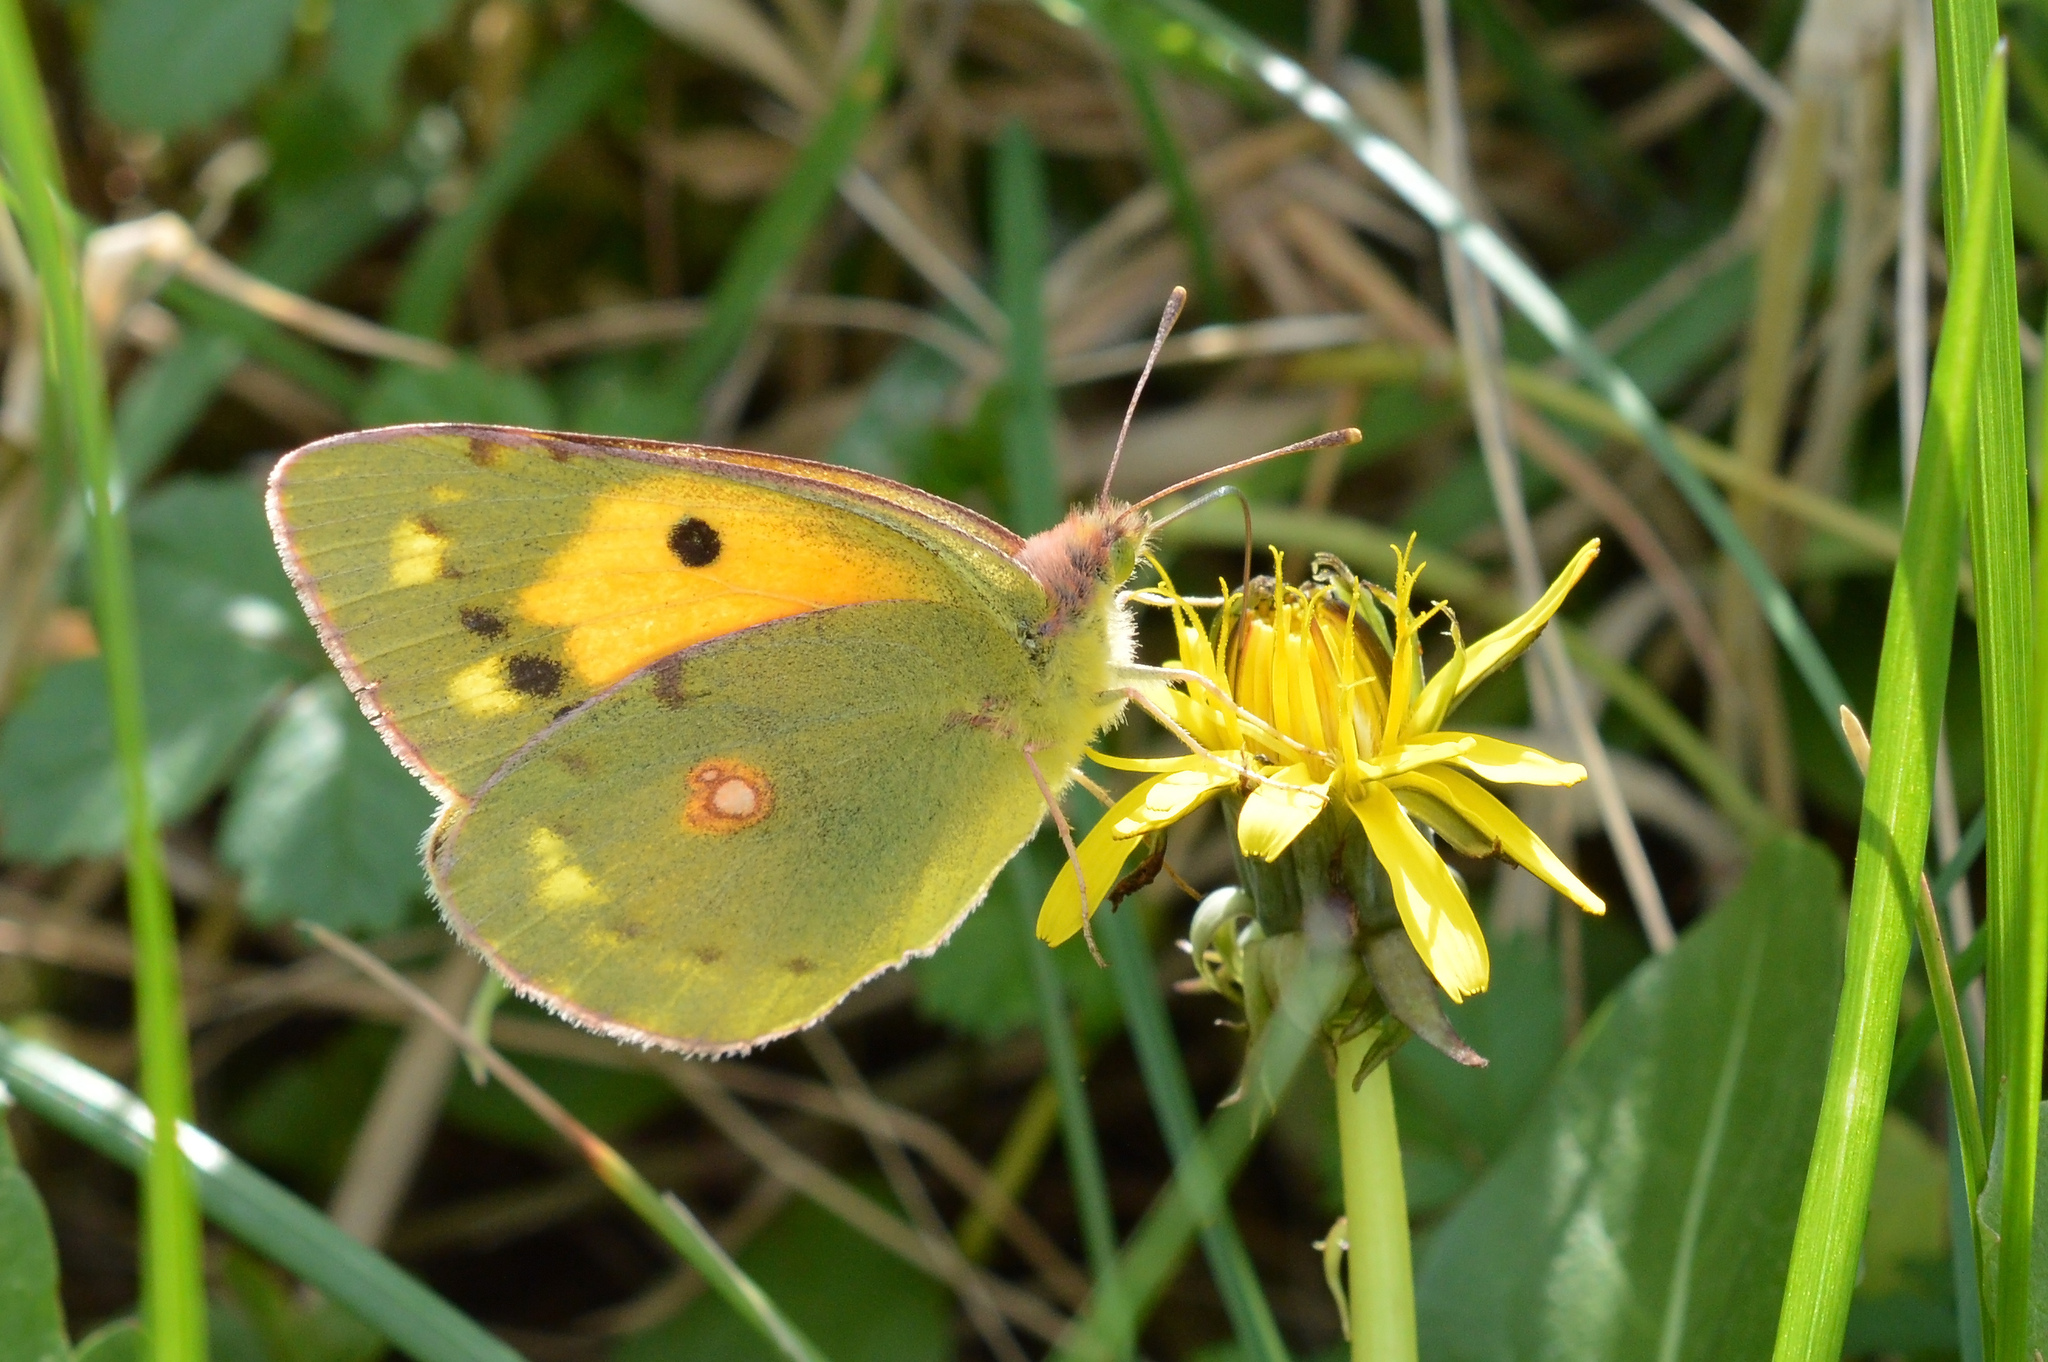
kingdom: Animalia
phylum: Arthropoda
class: Insecta
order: Lepidoptera
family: Pieridae
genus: Colias
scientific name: Colias croceus
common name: Clouded yellow
